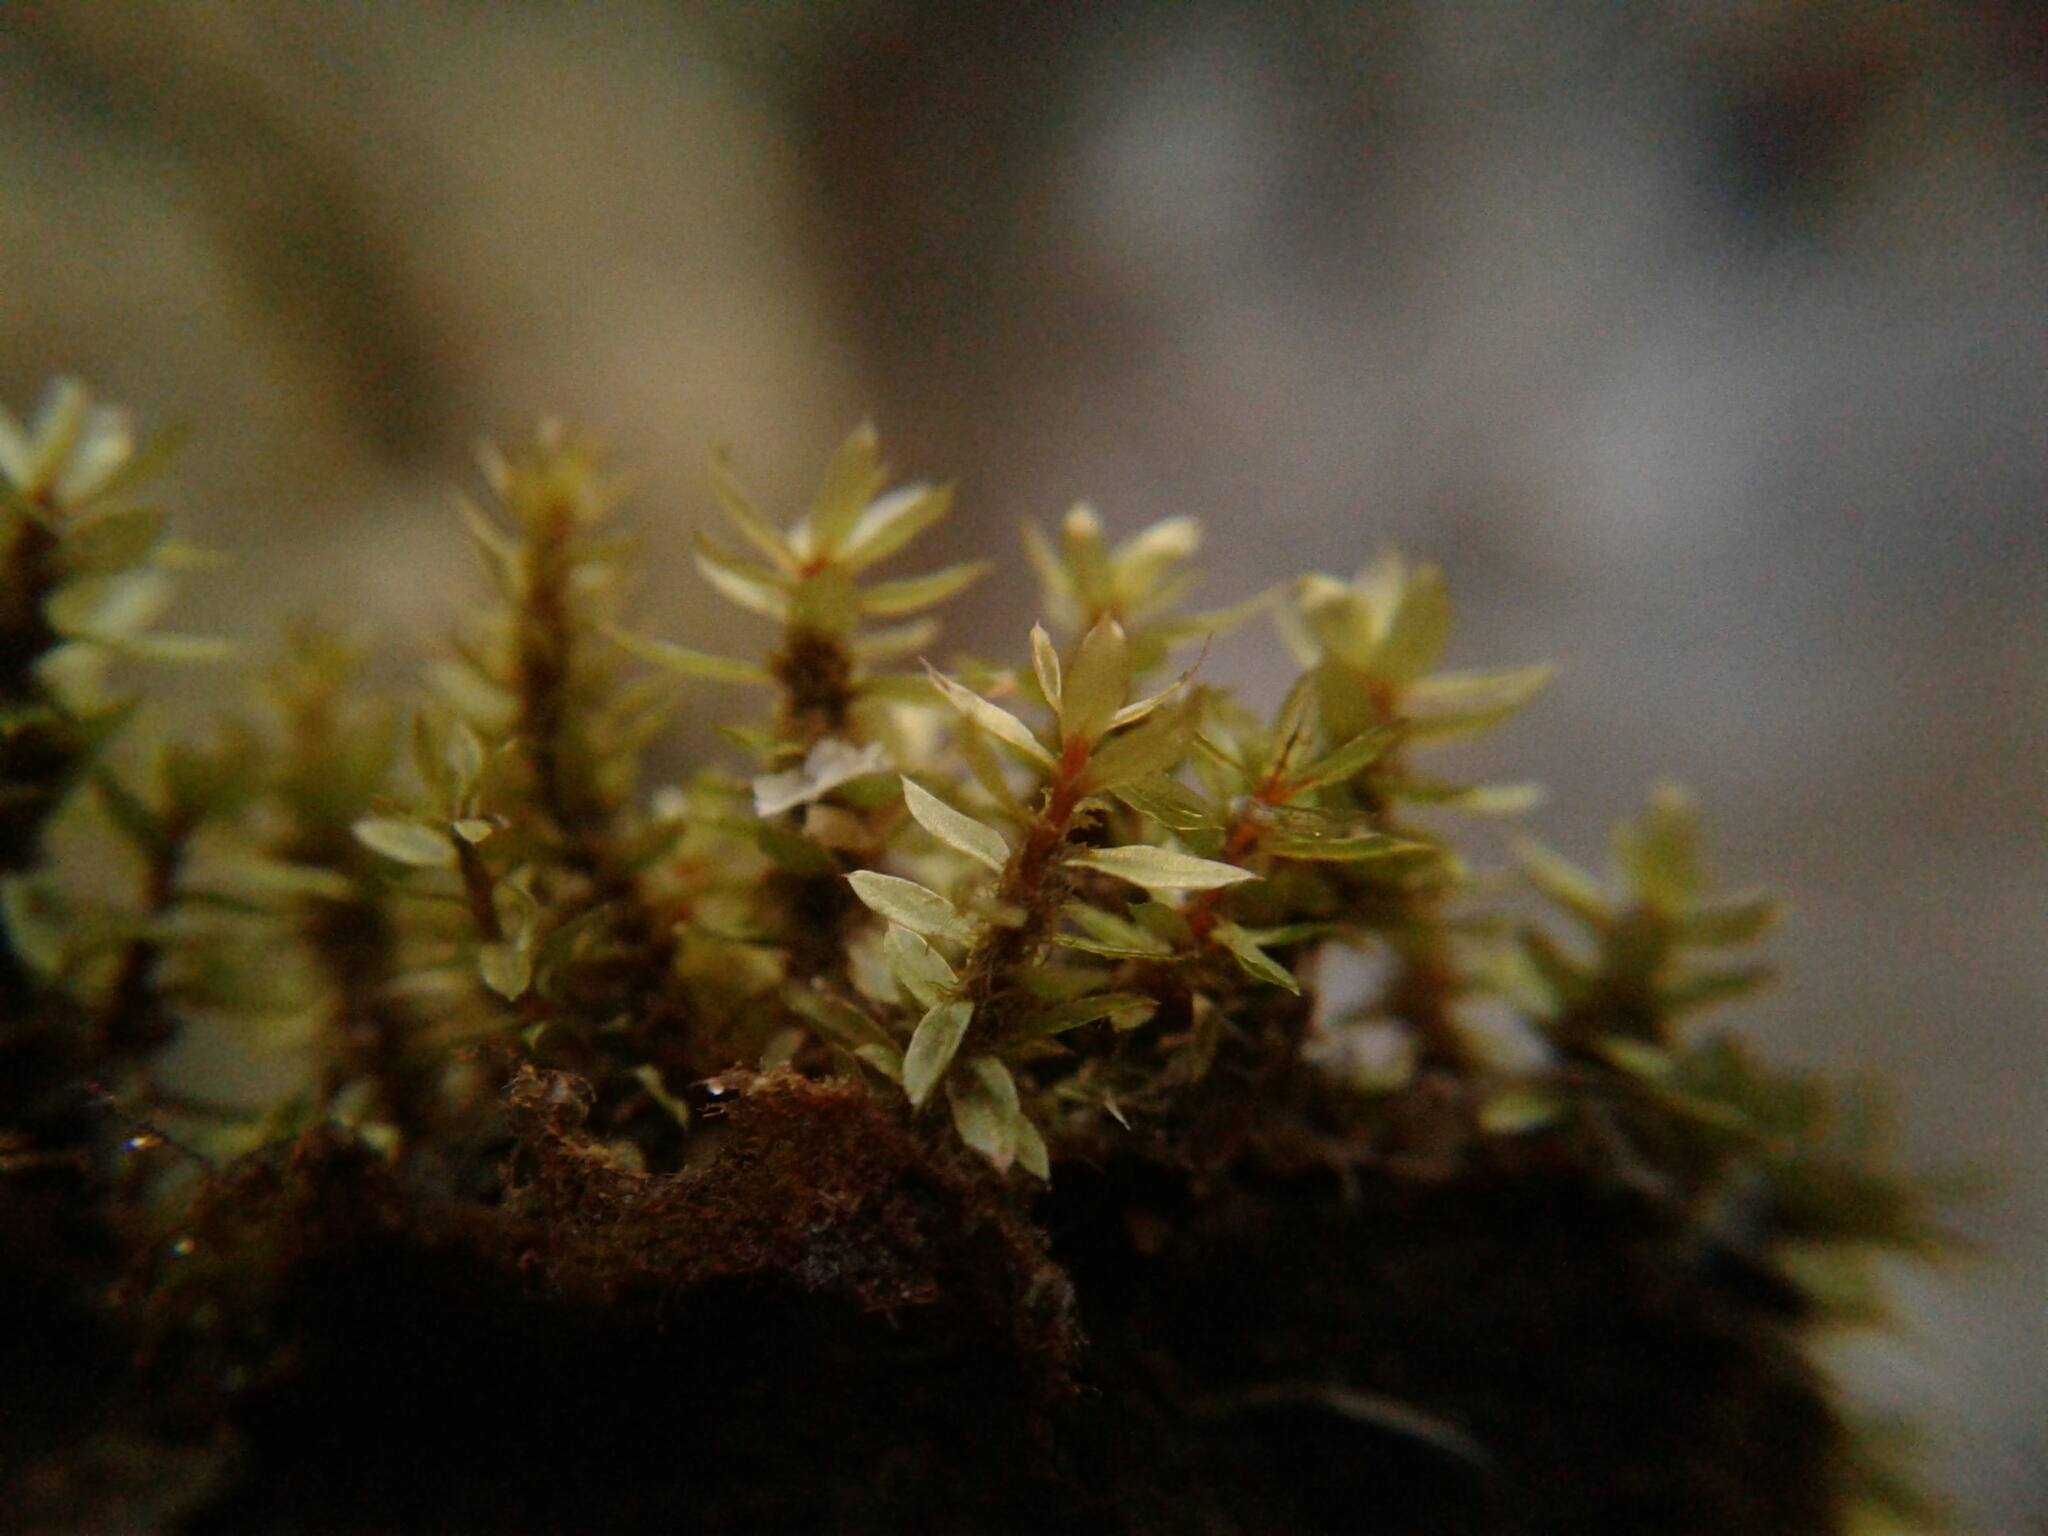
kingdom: Plantae
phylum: Bryophyta
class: Bryopsida
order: Bryales
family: Bryaceae
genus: Ptychostomum
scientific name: Ptychostomum pseudotriquetrum
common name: Long-leaved thread moss
